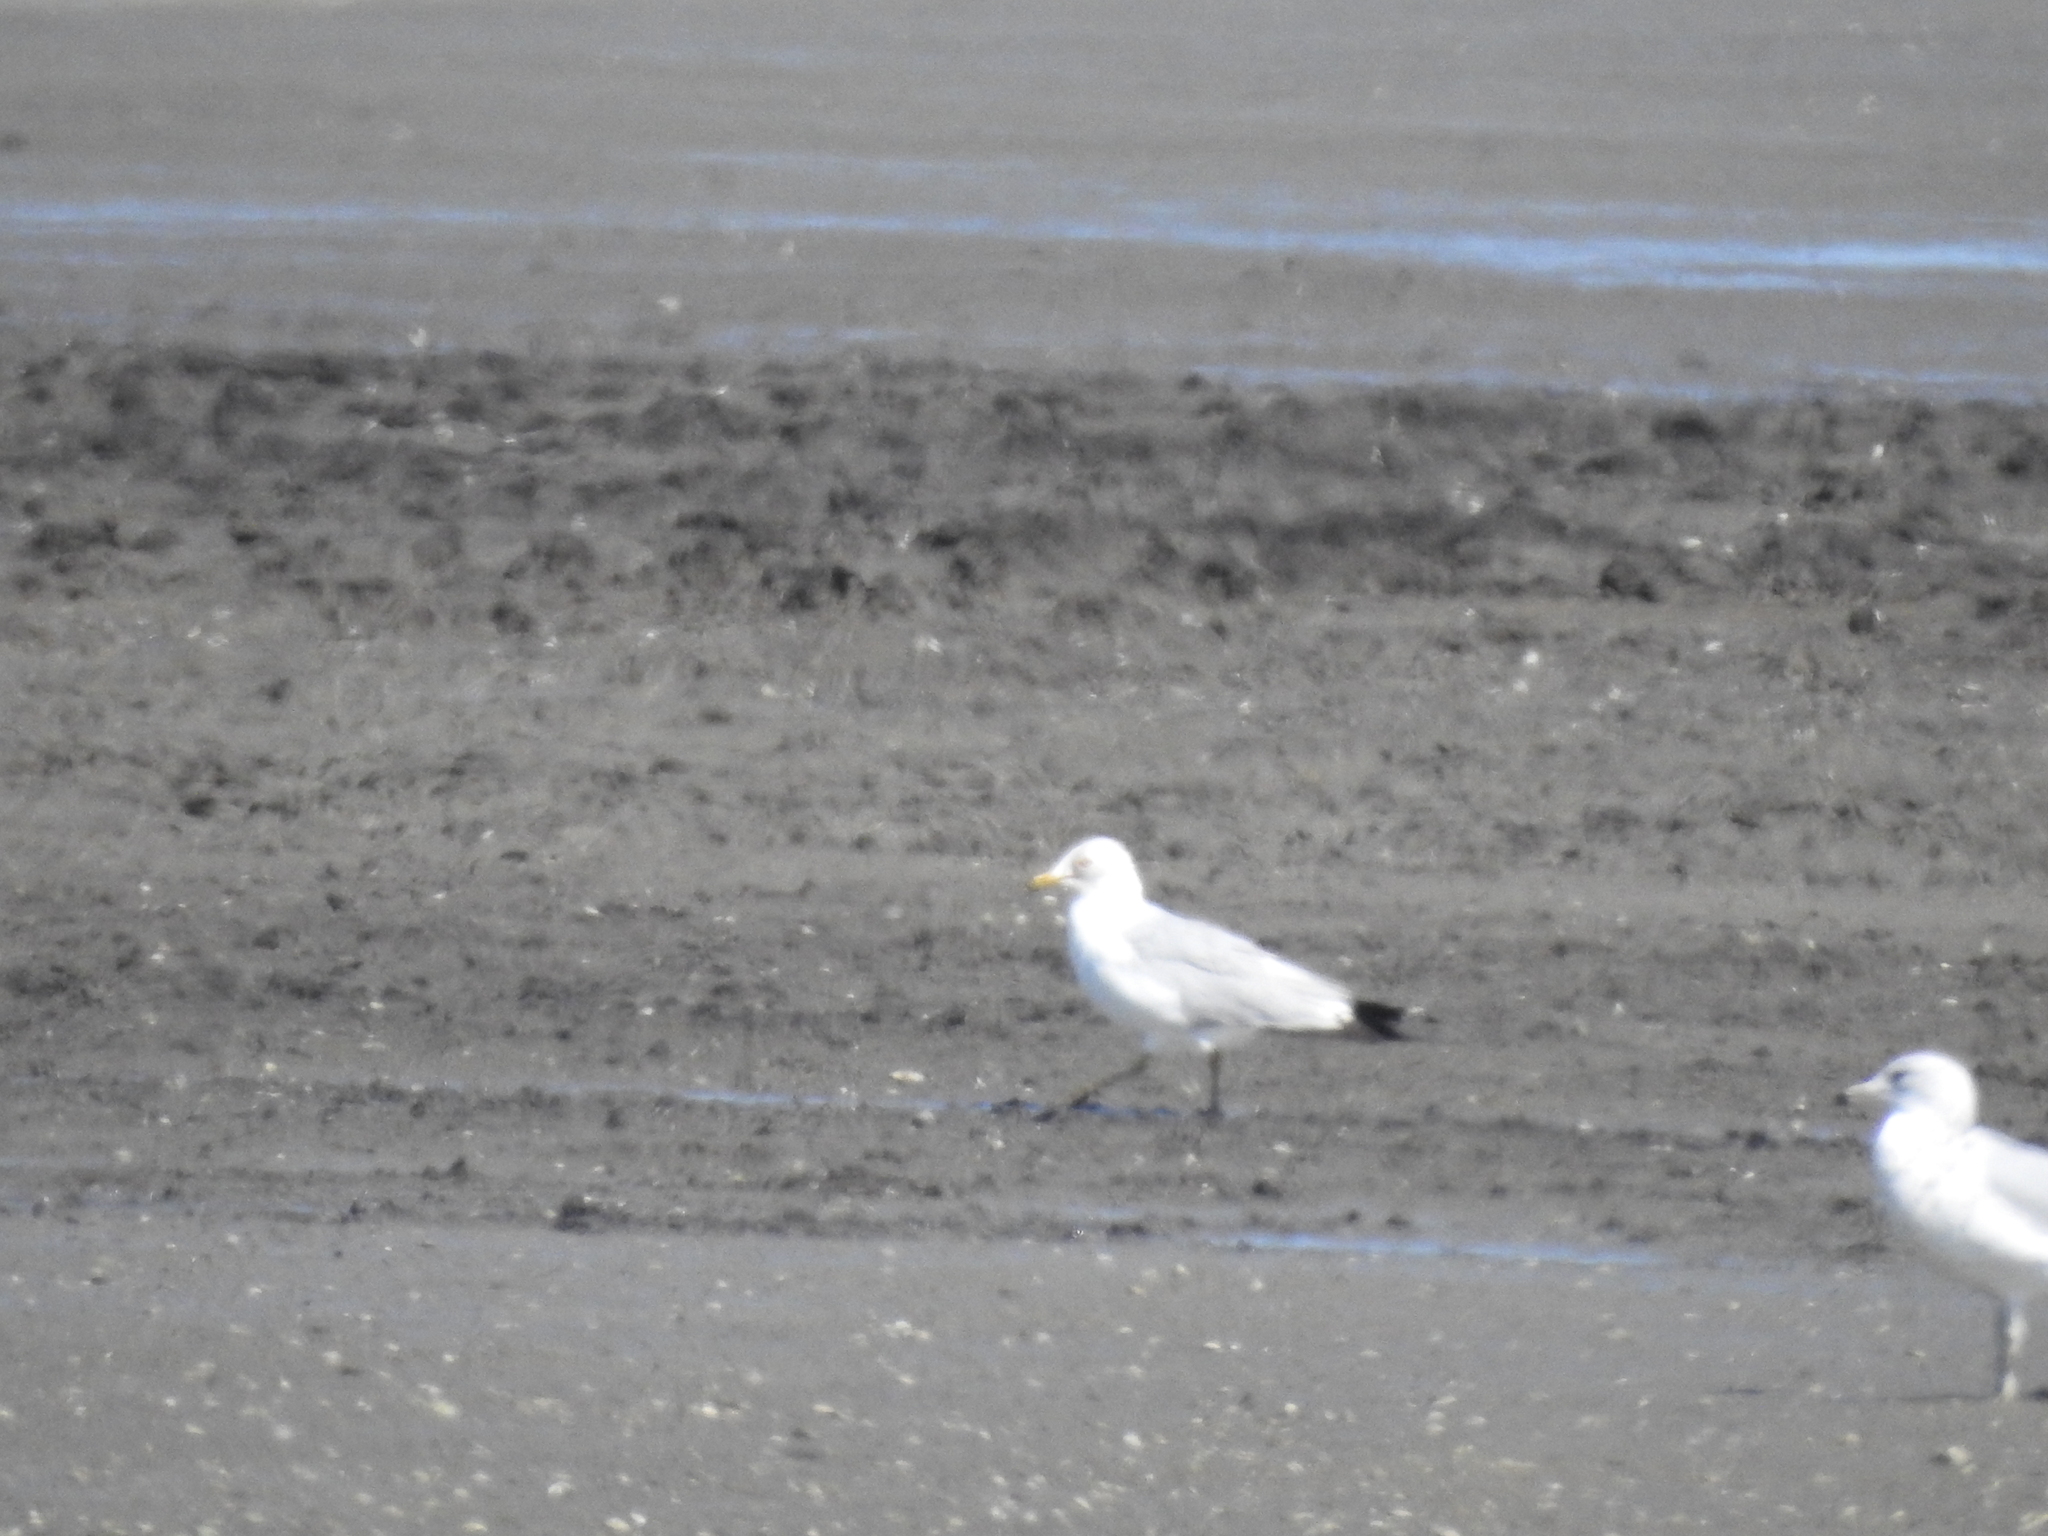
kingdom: Animalia
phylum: Chordata
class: Aves
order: Charadriiformes
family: Laridae
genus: Larus
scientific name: Larus
